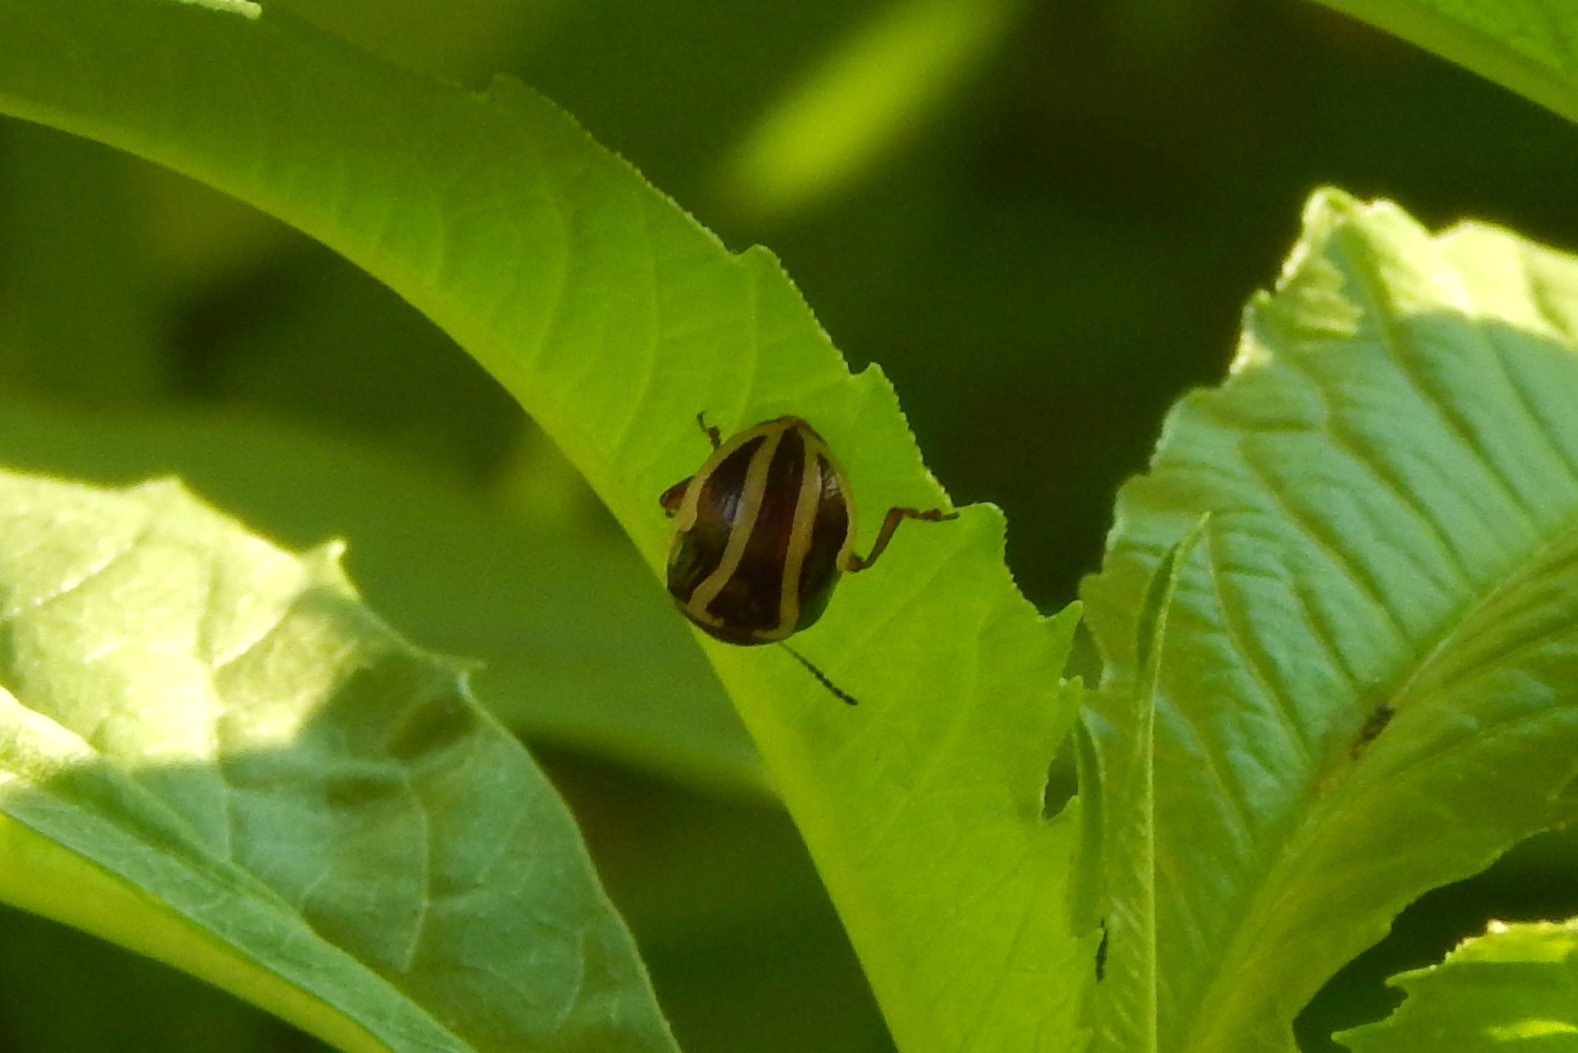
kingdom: Animalia
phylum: Arthropoda
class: Insecta
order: Coleoptera
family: Chrysomelidae
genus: Calligrapha
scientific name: Calligrapha
